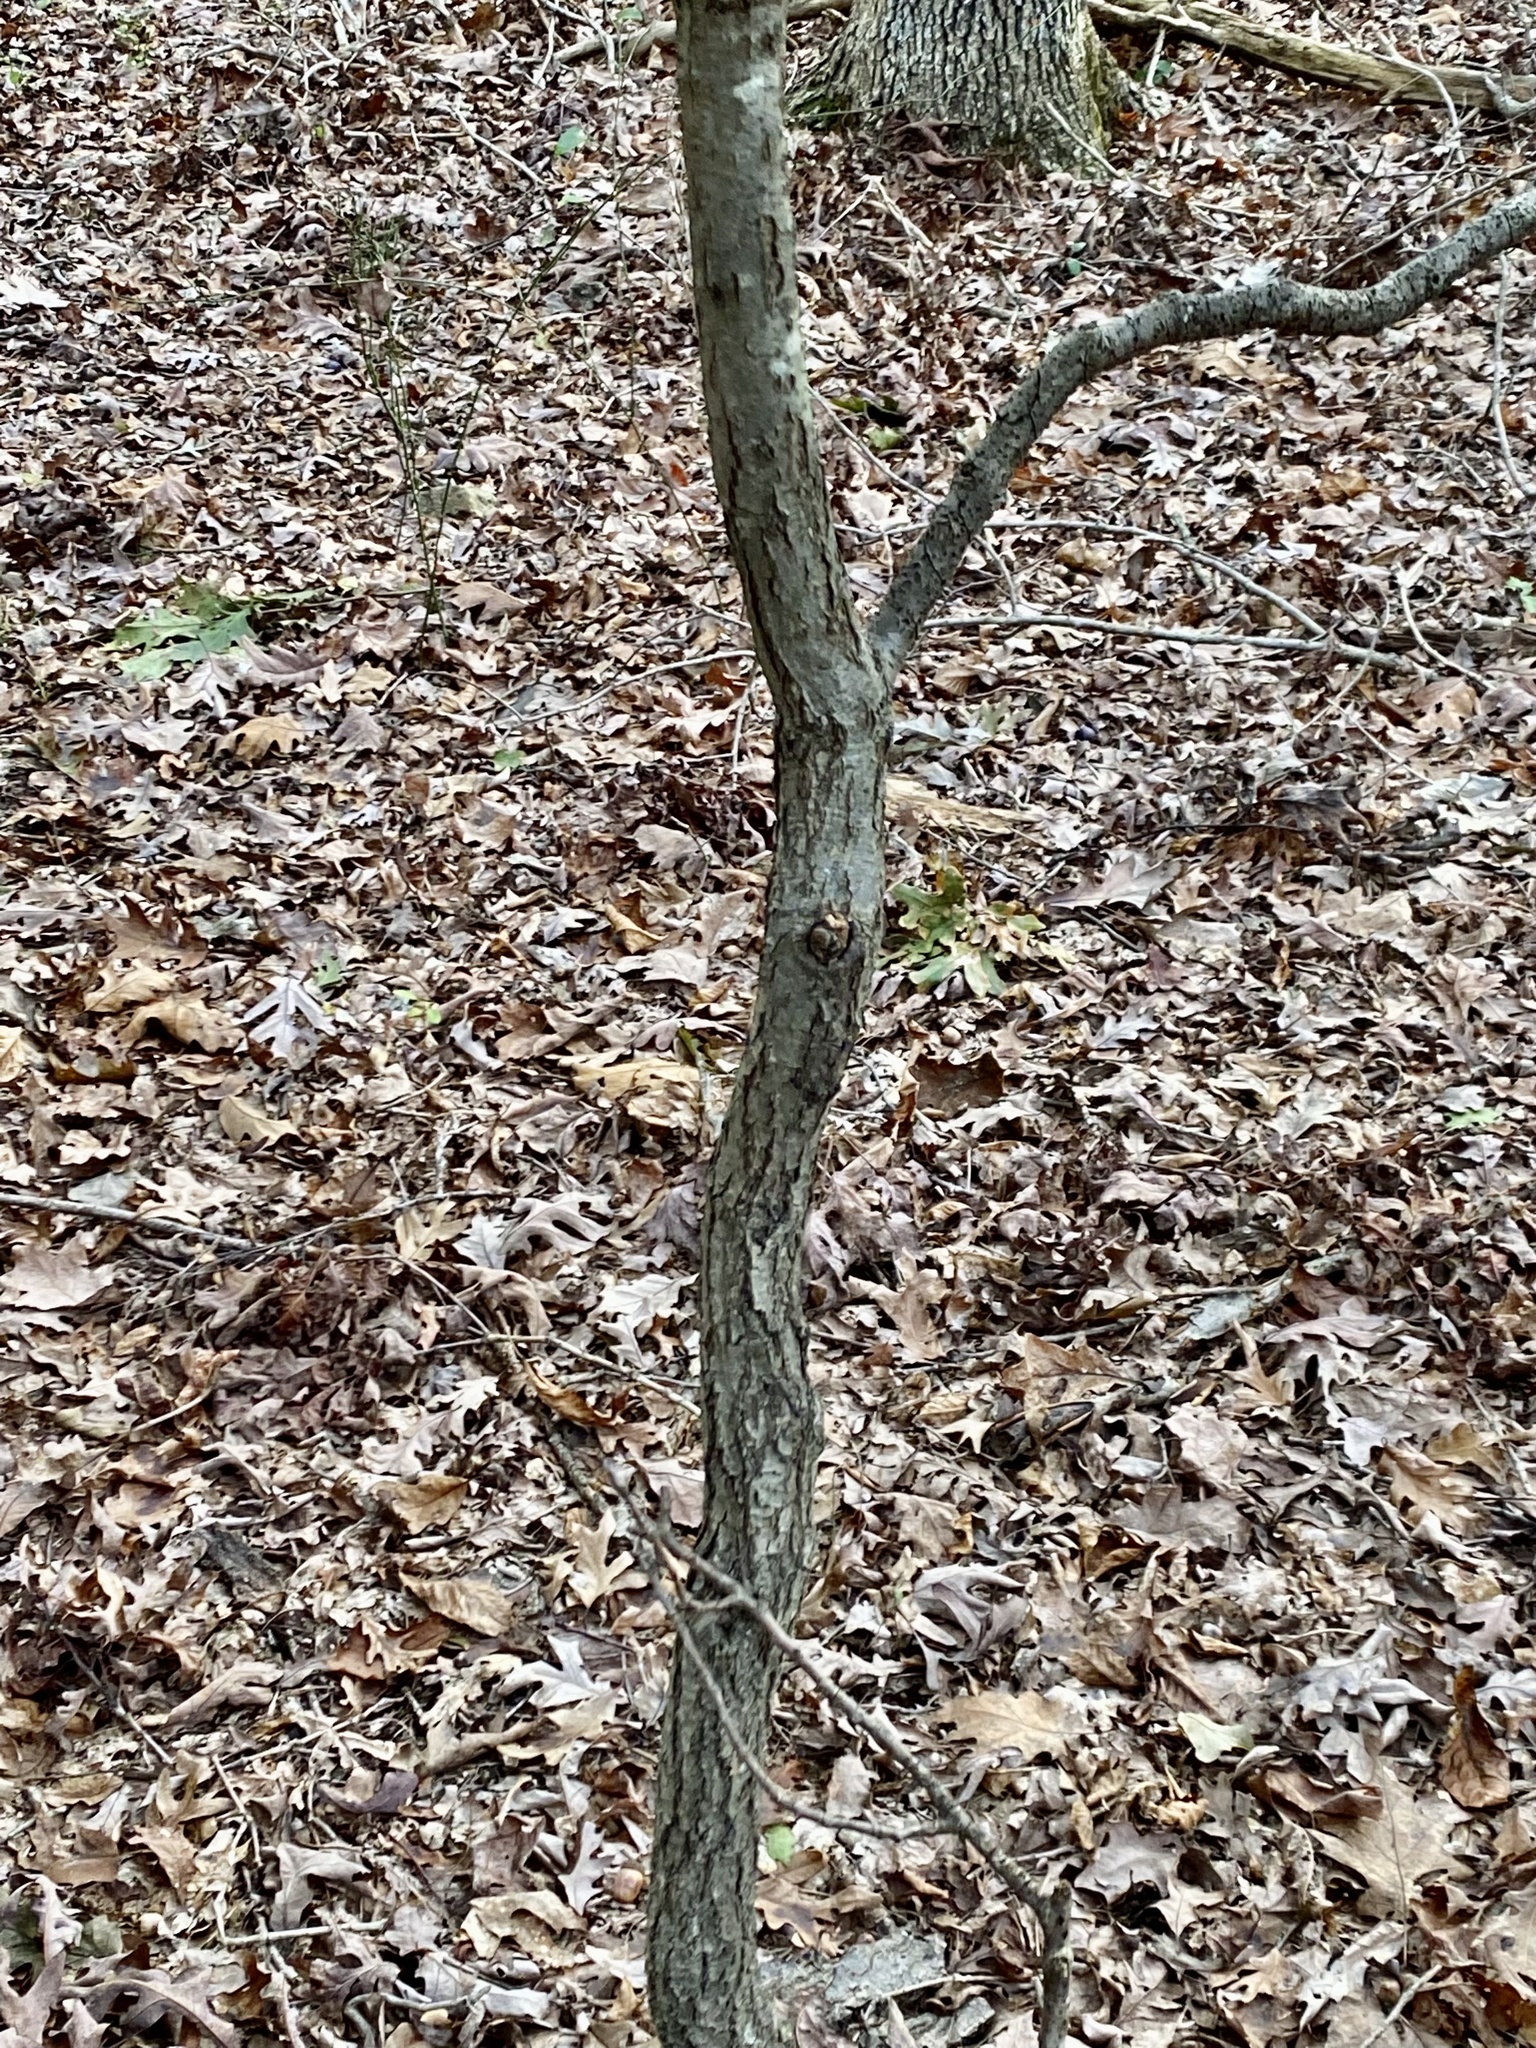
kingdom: Plantae
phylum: Tracheophyta
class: Magnoliopsida
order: Fagales
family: Fagaceae
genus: Quercus
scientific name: Quercus velutina
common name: Black oak
